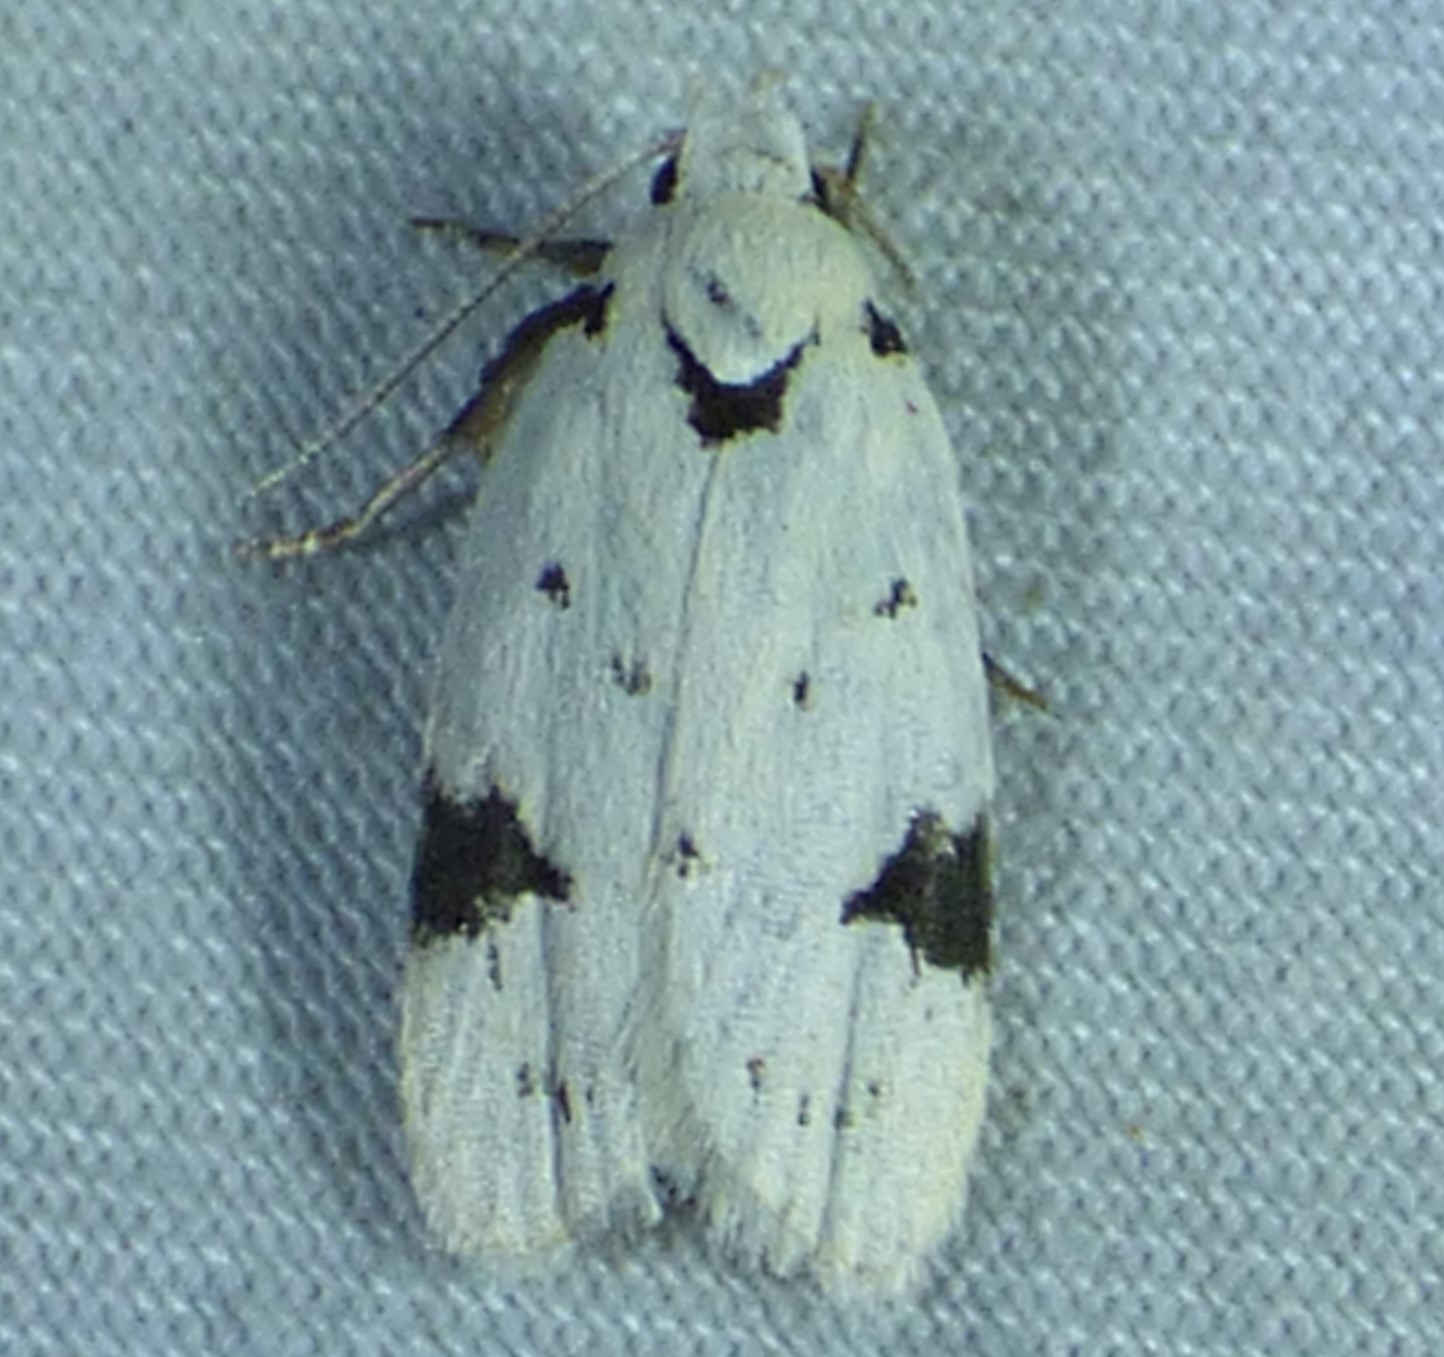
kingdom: Animalia
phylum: Arthropoda
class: Insecta
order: Lepidoptera
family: Oecophoridae
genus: Inga
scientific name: Inga sparsiciliella
